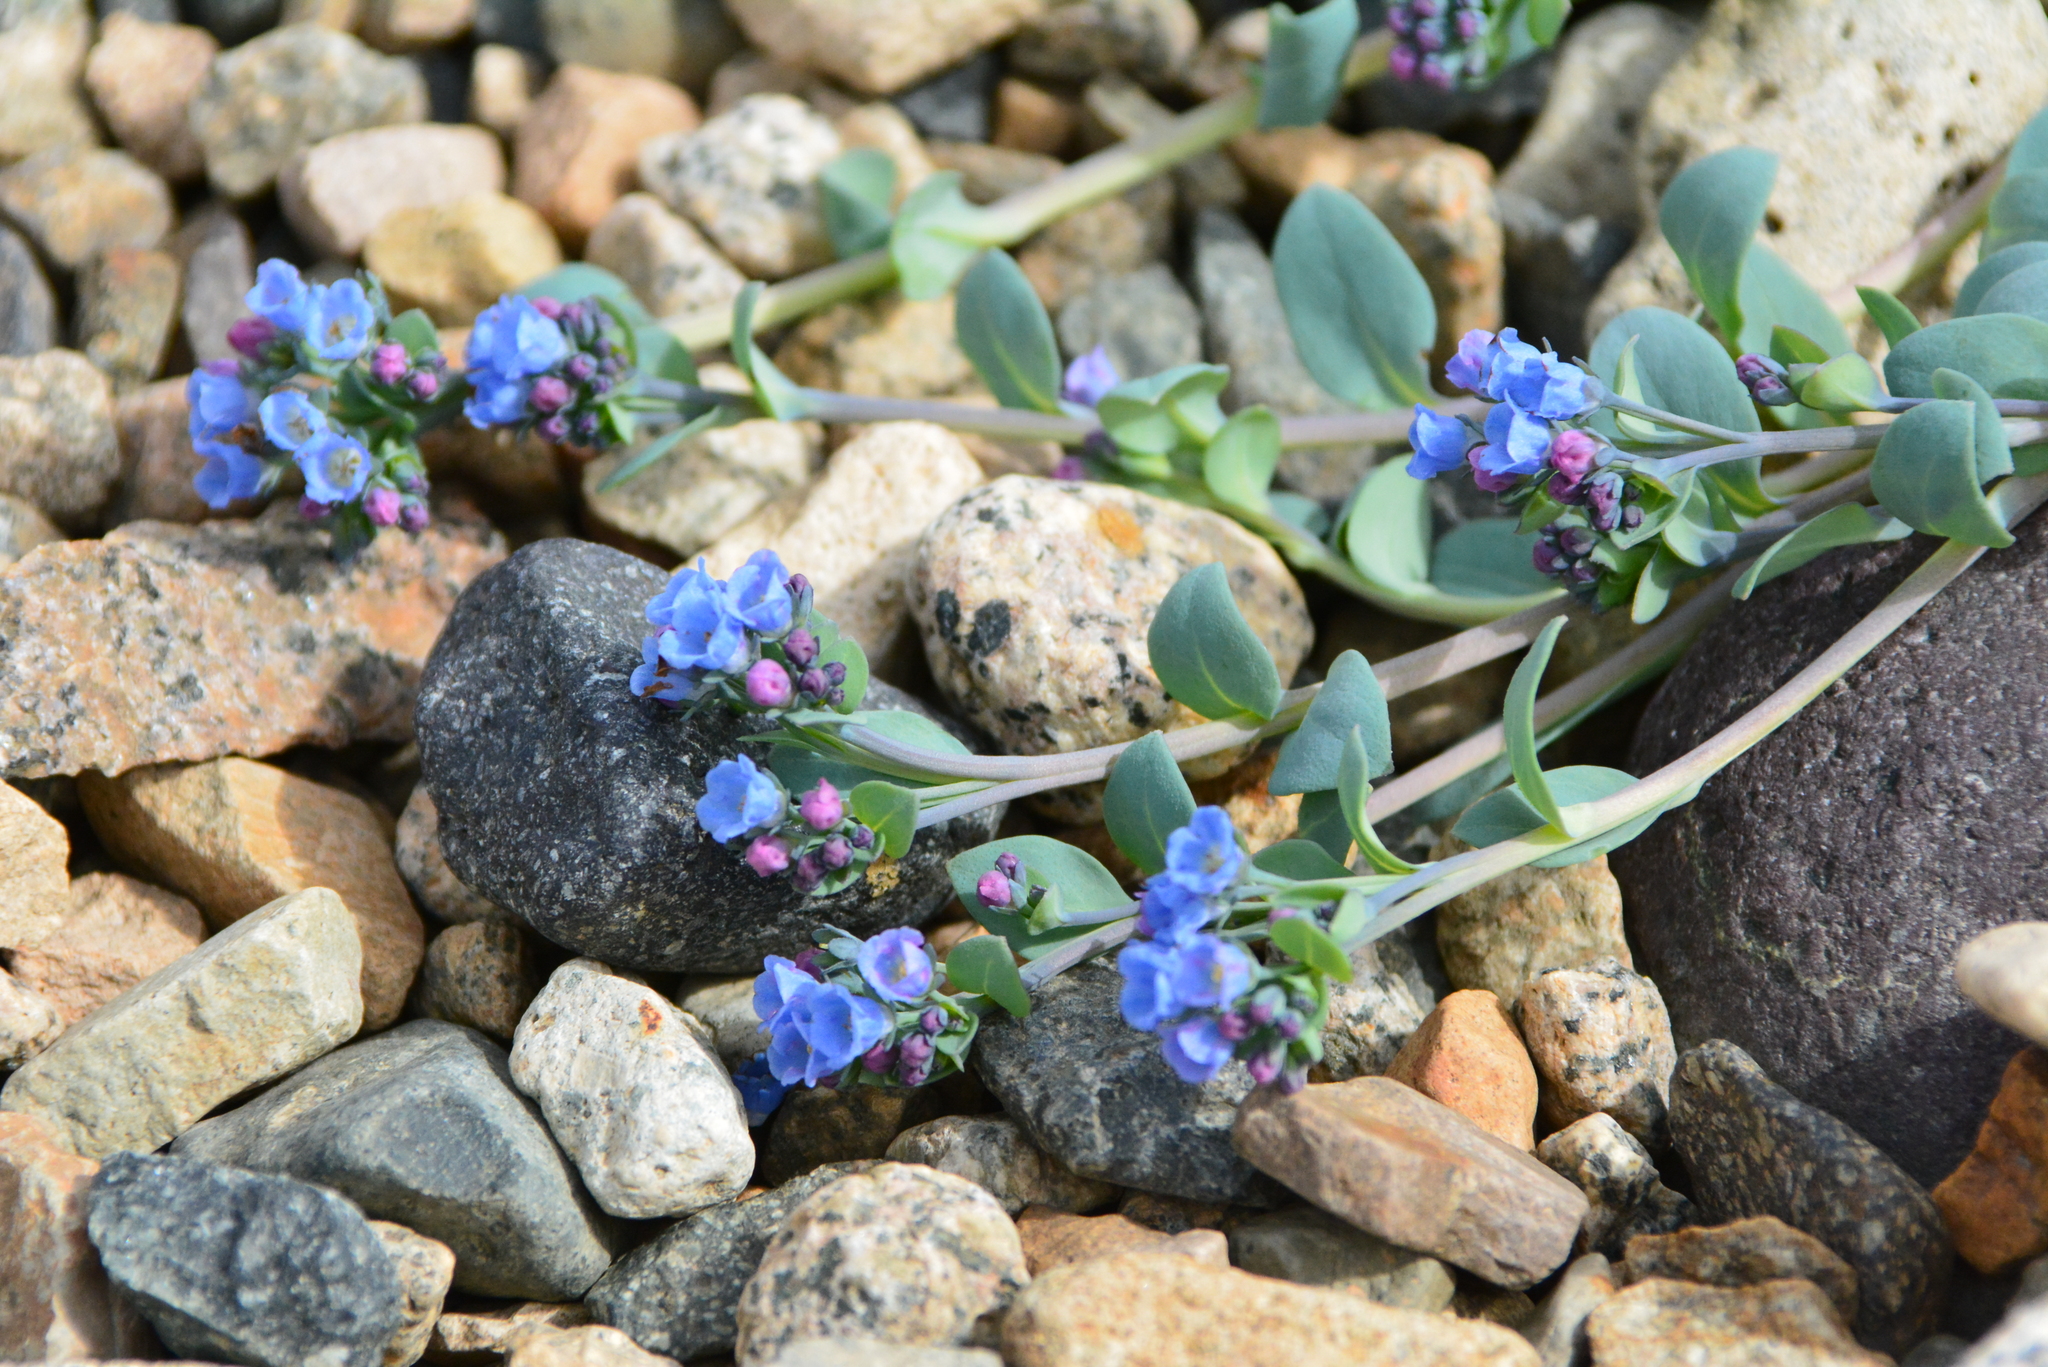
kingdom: Plantae
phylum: Tracheophyta
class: Magnoliopsida
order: Boraginales
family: Boraginaceae
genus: Mertensia
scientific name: Mertensia maritima
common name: Oysterplant
